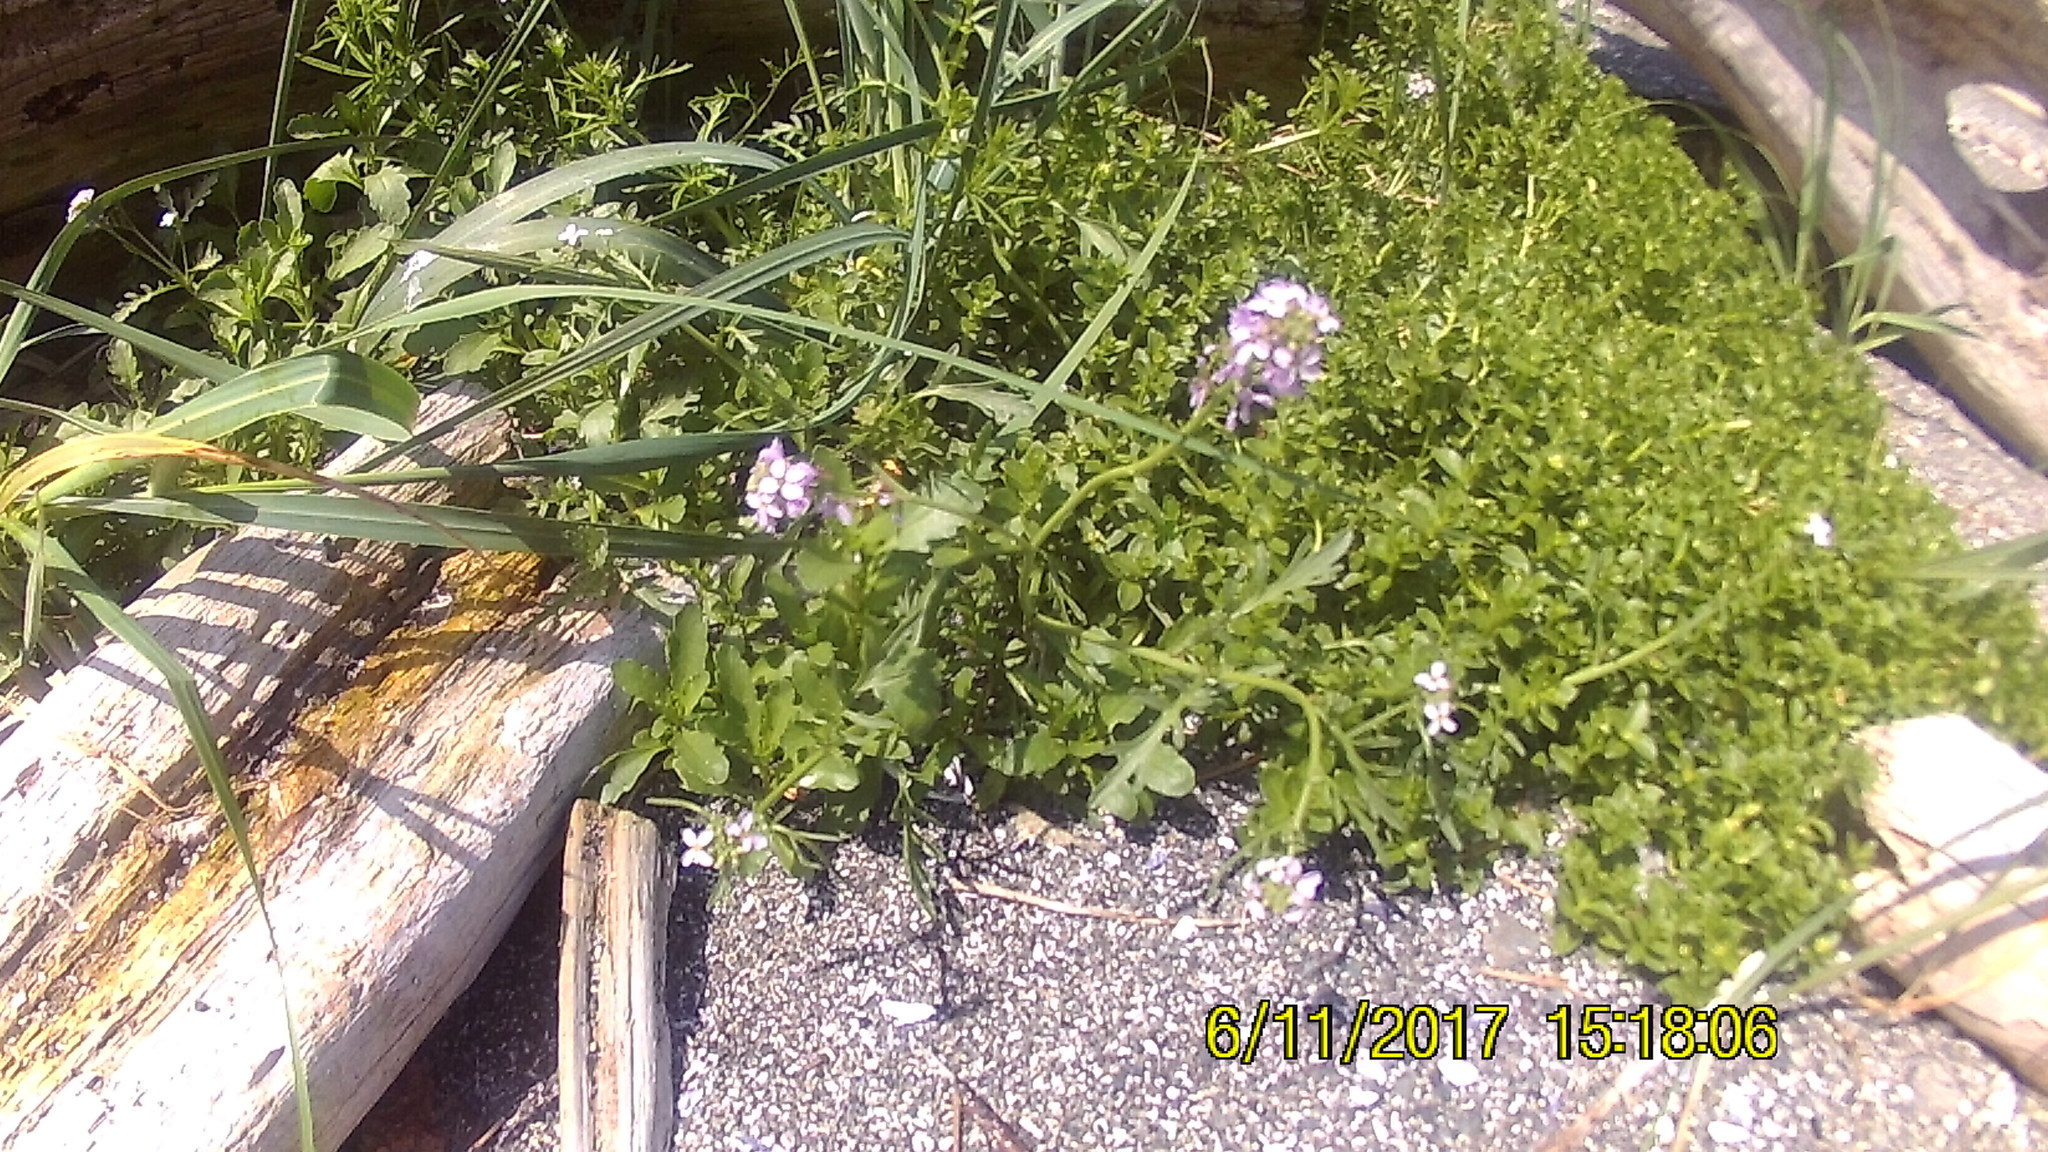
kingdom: Plantae
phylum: Tracheophyta
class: Magnoliopsida
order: Brassicales
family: Brassicaceae
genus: Cakile
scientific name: Cakile edentula
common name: American sea rocket
